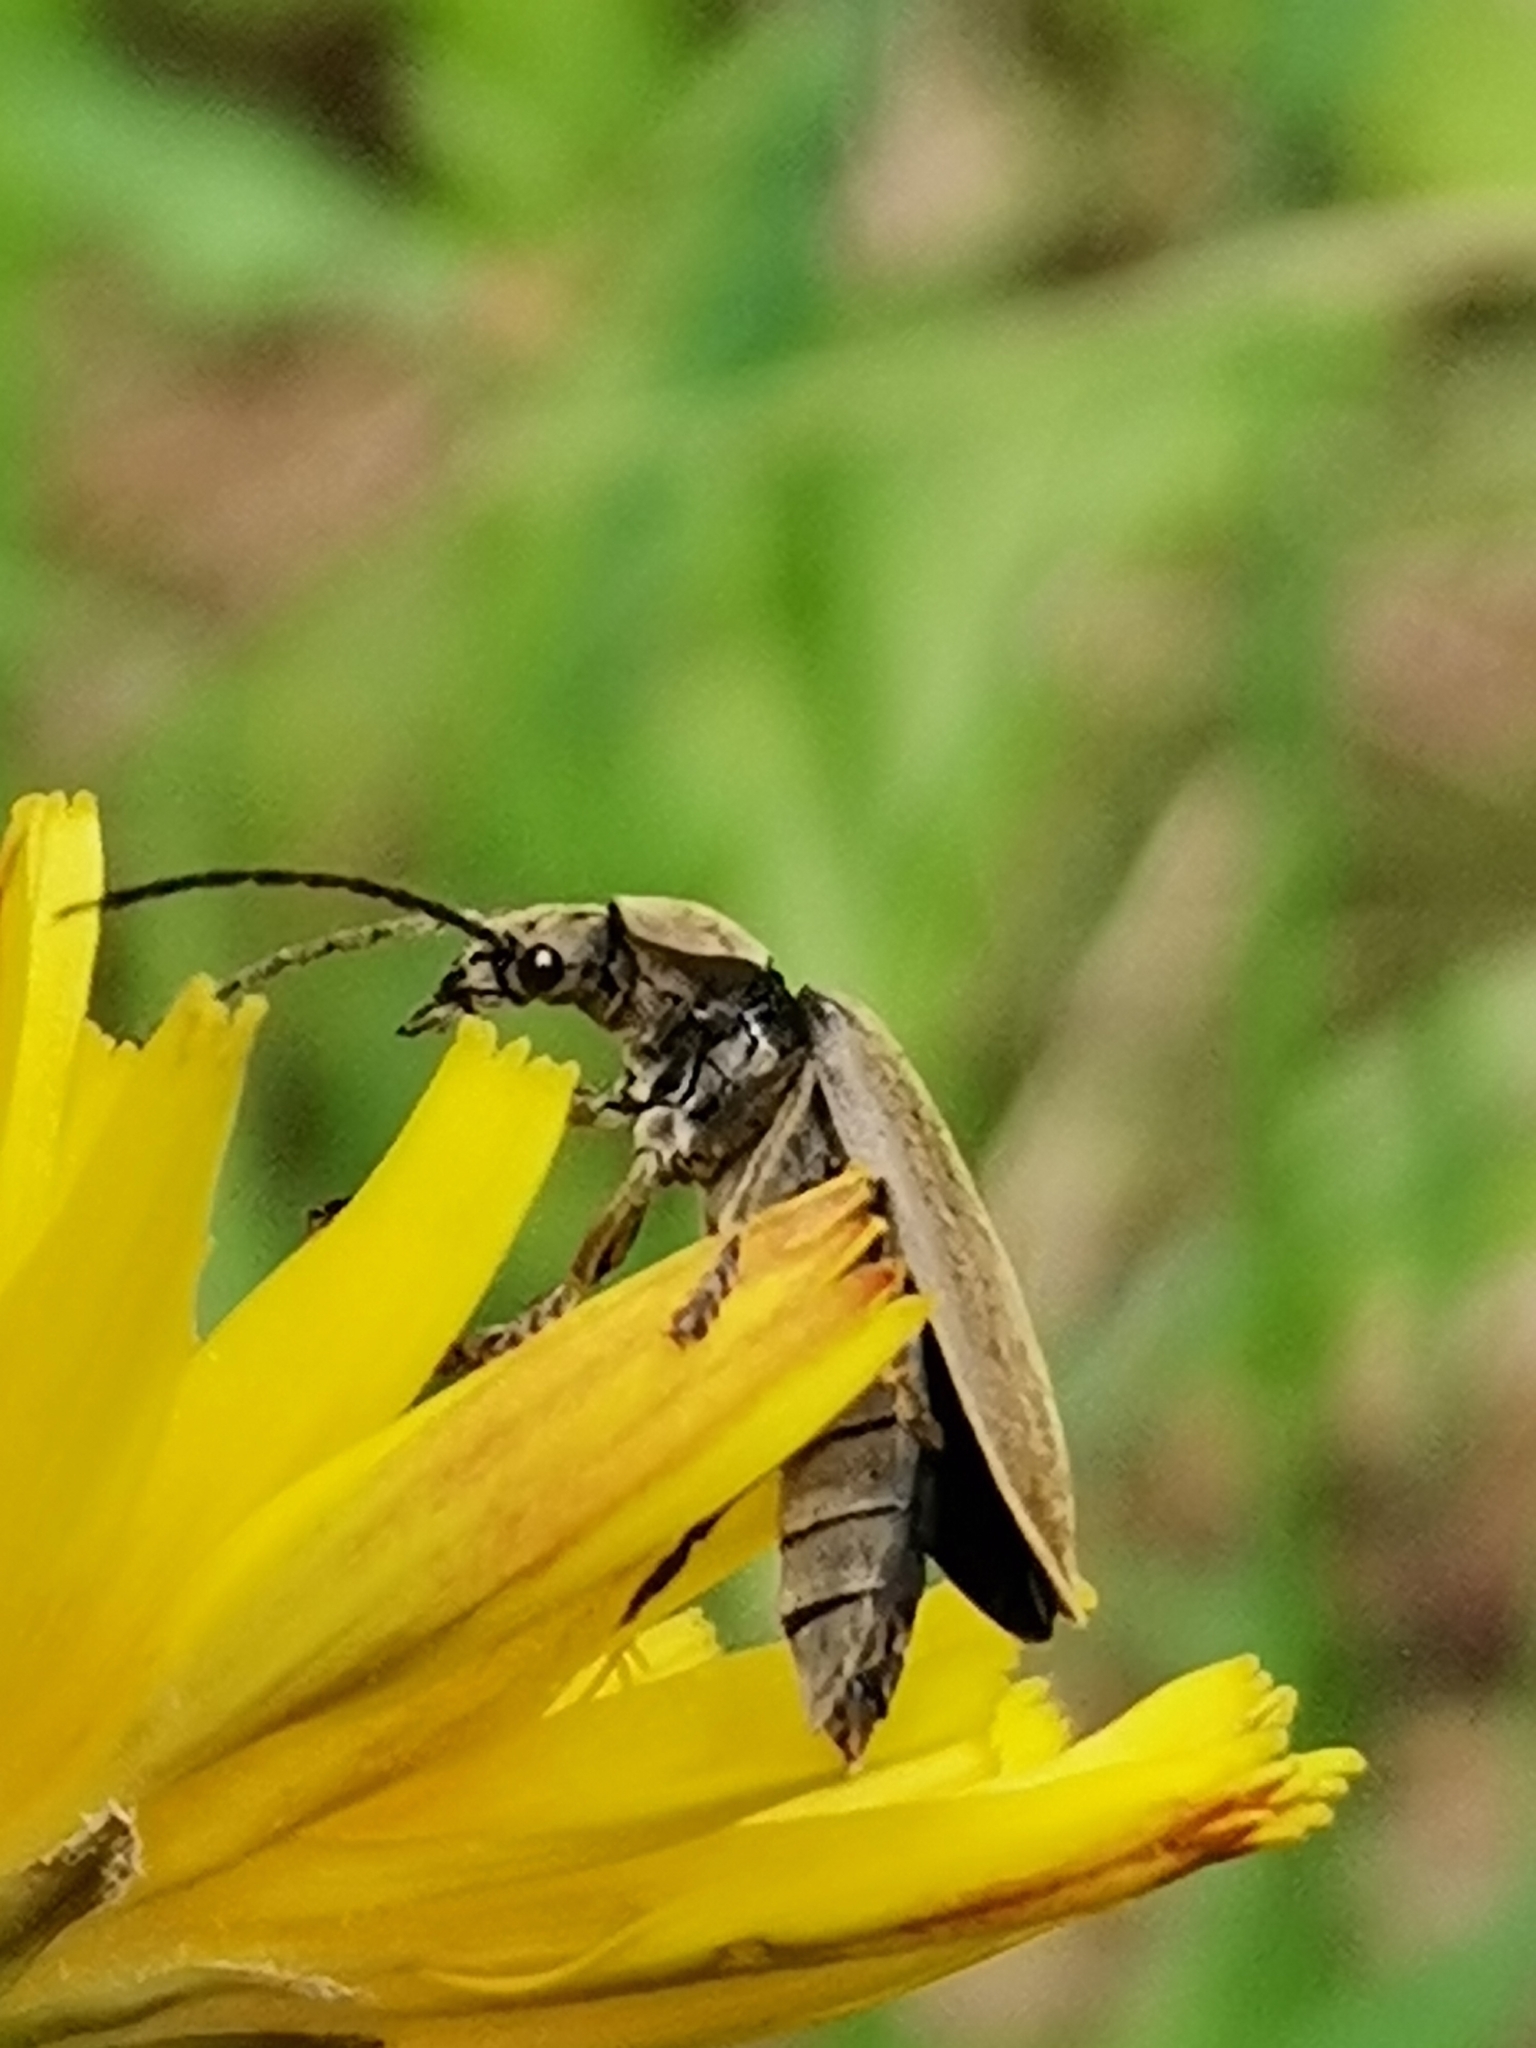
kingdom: Animalia
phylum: Arthropoda
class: Insecta
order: Coleoptera
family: Dascillidae
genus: Dascillus
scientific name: Dascillus cervinus
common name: Orchid beetle
